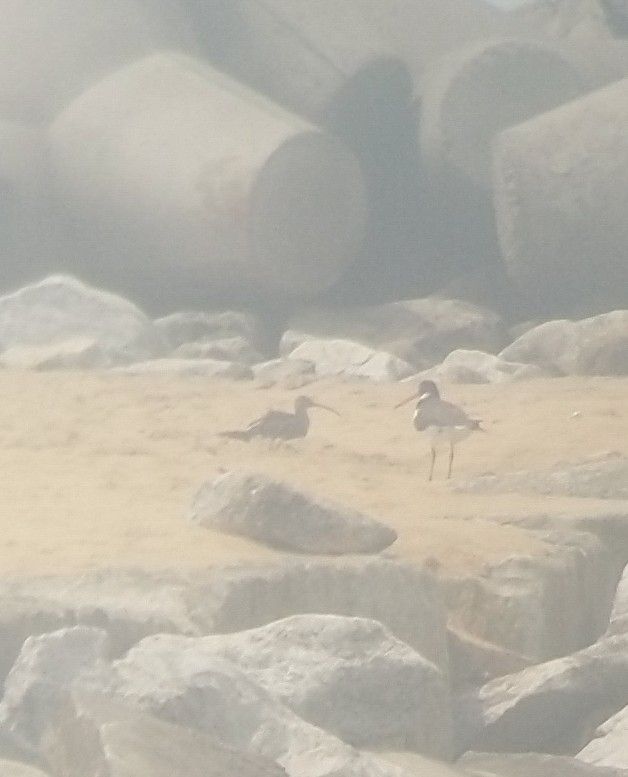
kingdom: Animalia
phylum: Chordata
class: Aves
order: Charadriiformes
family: Haematopodidae
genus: Haematopus
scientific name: Haematopus ostralegus
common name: Eurasian oystercatcher
